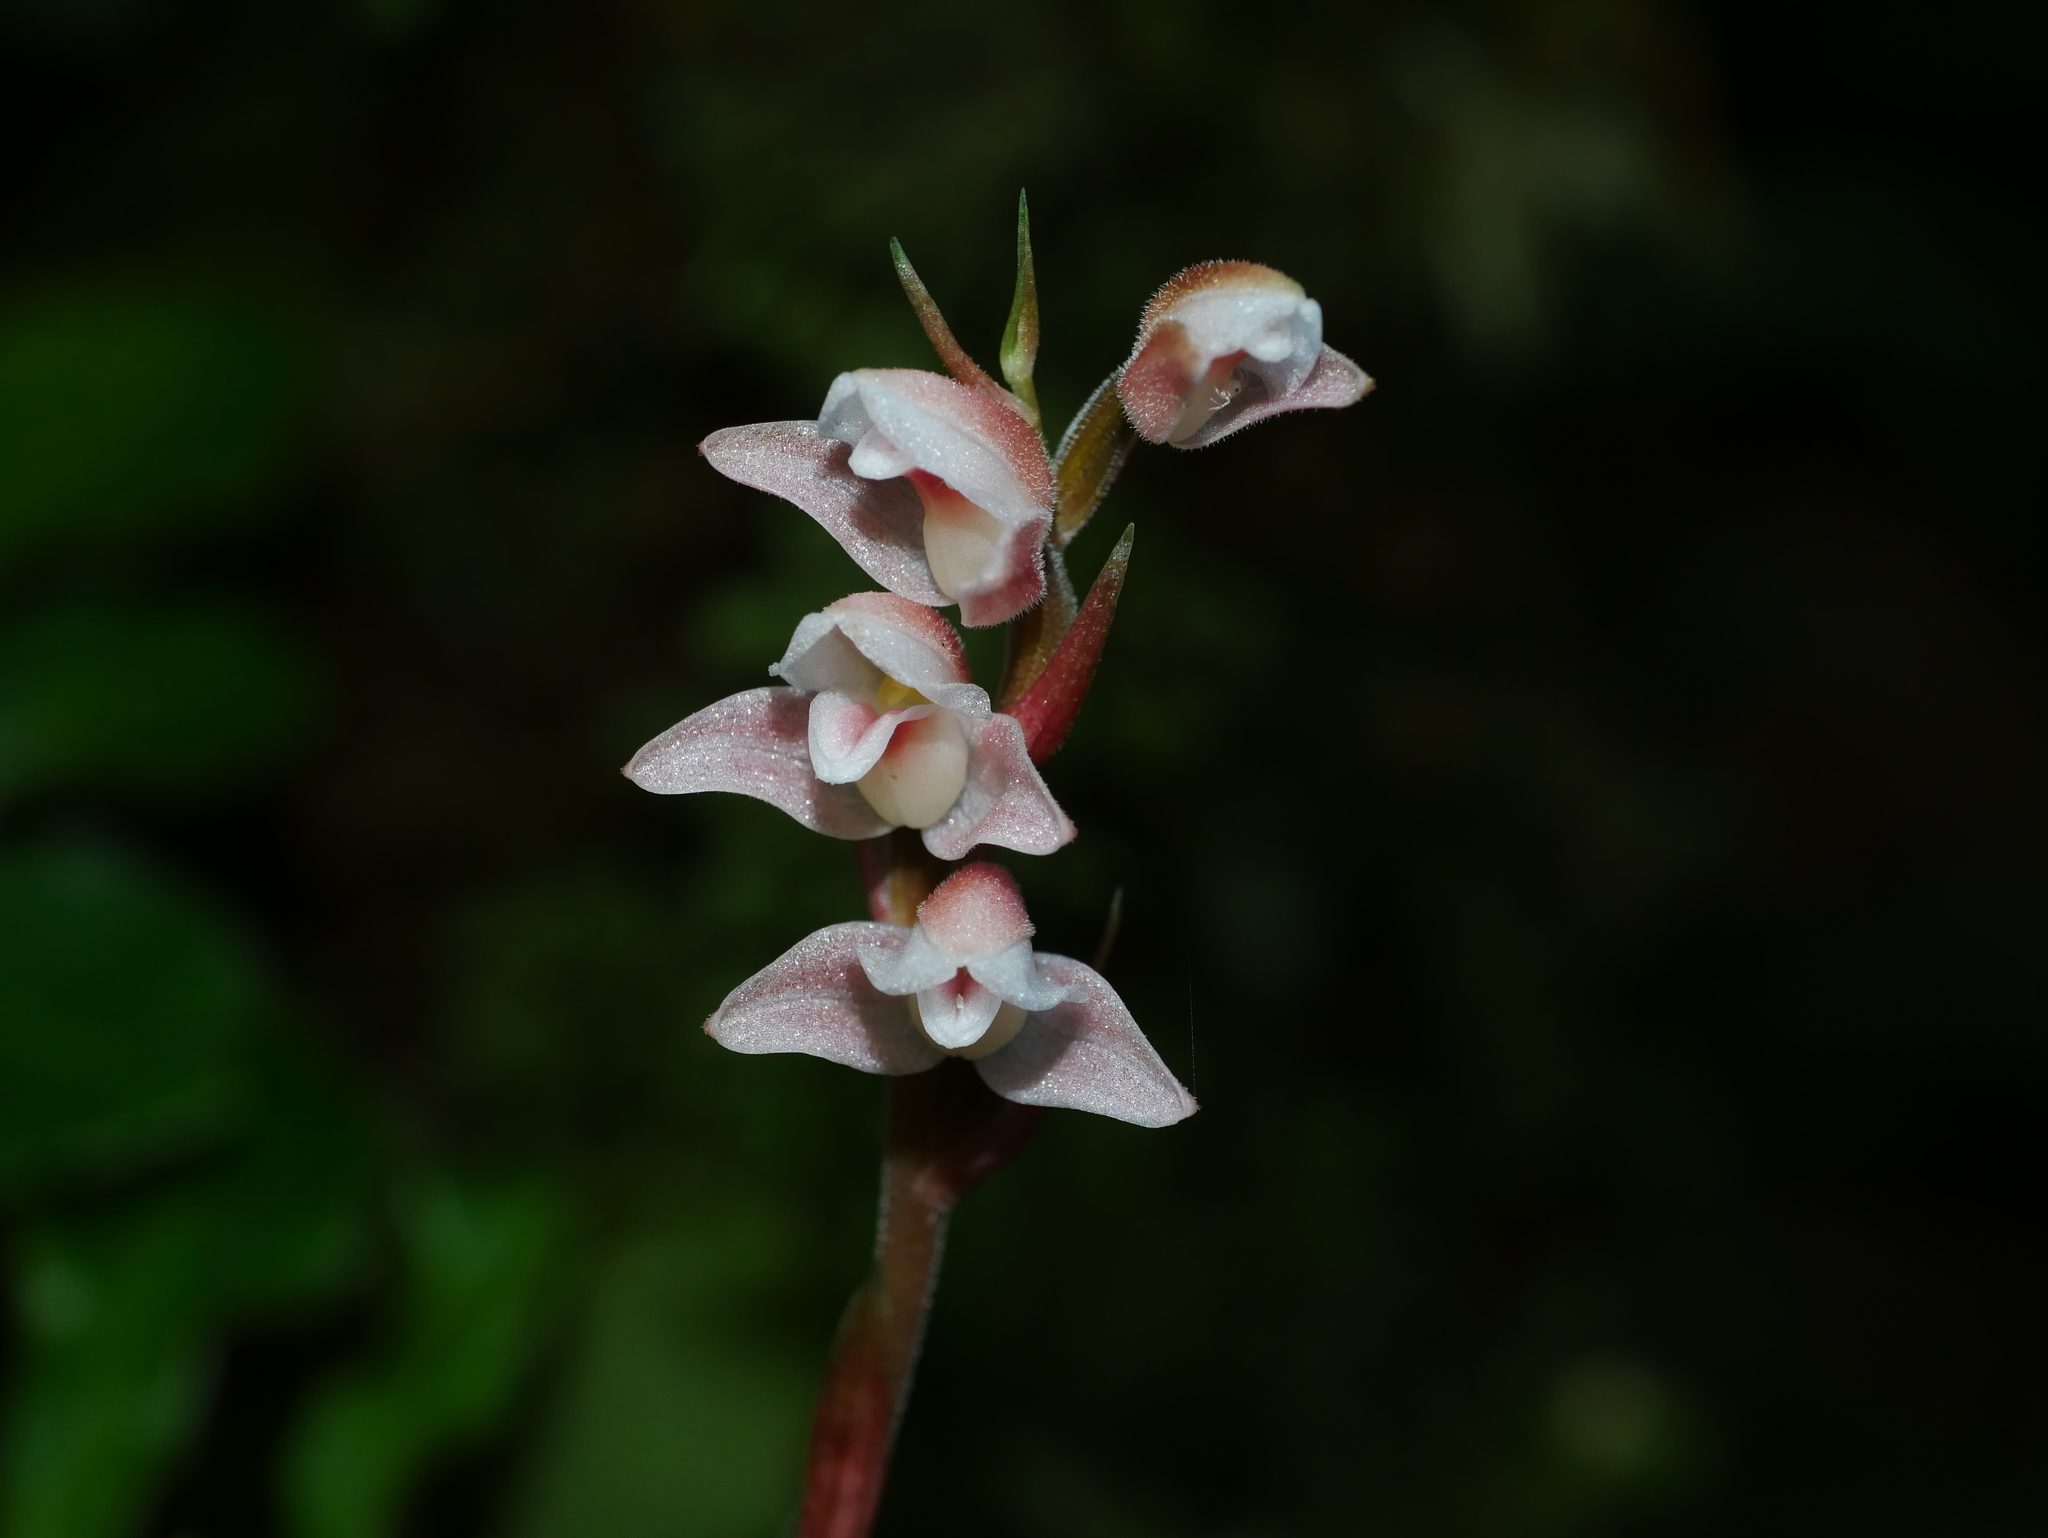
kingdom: Plantae
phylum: Tracheophyta
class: Liliopsida
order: Asparagales
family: Orchidaceae
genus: Goodyera
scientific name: Goodyera velutina
